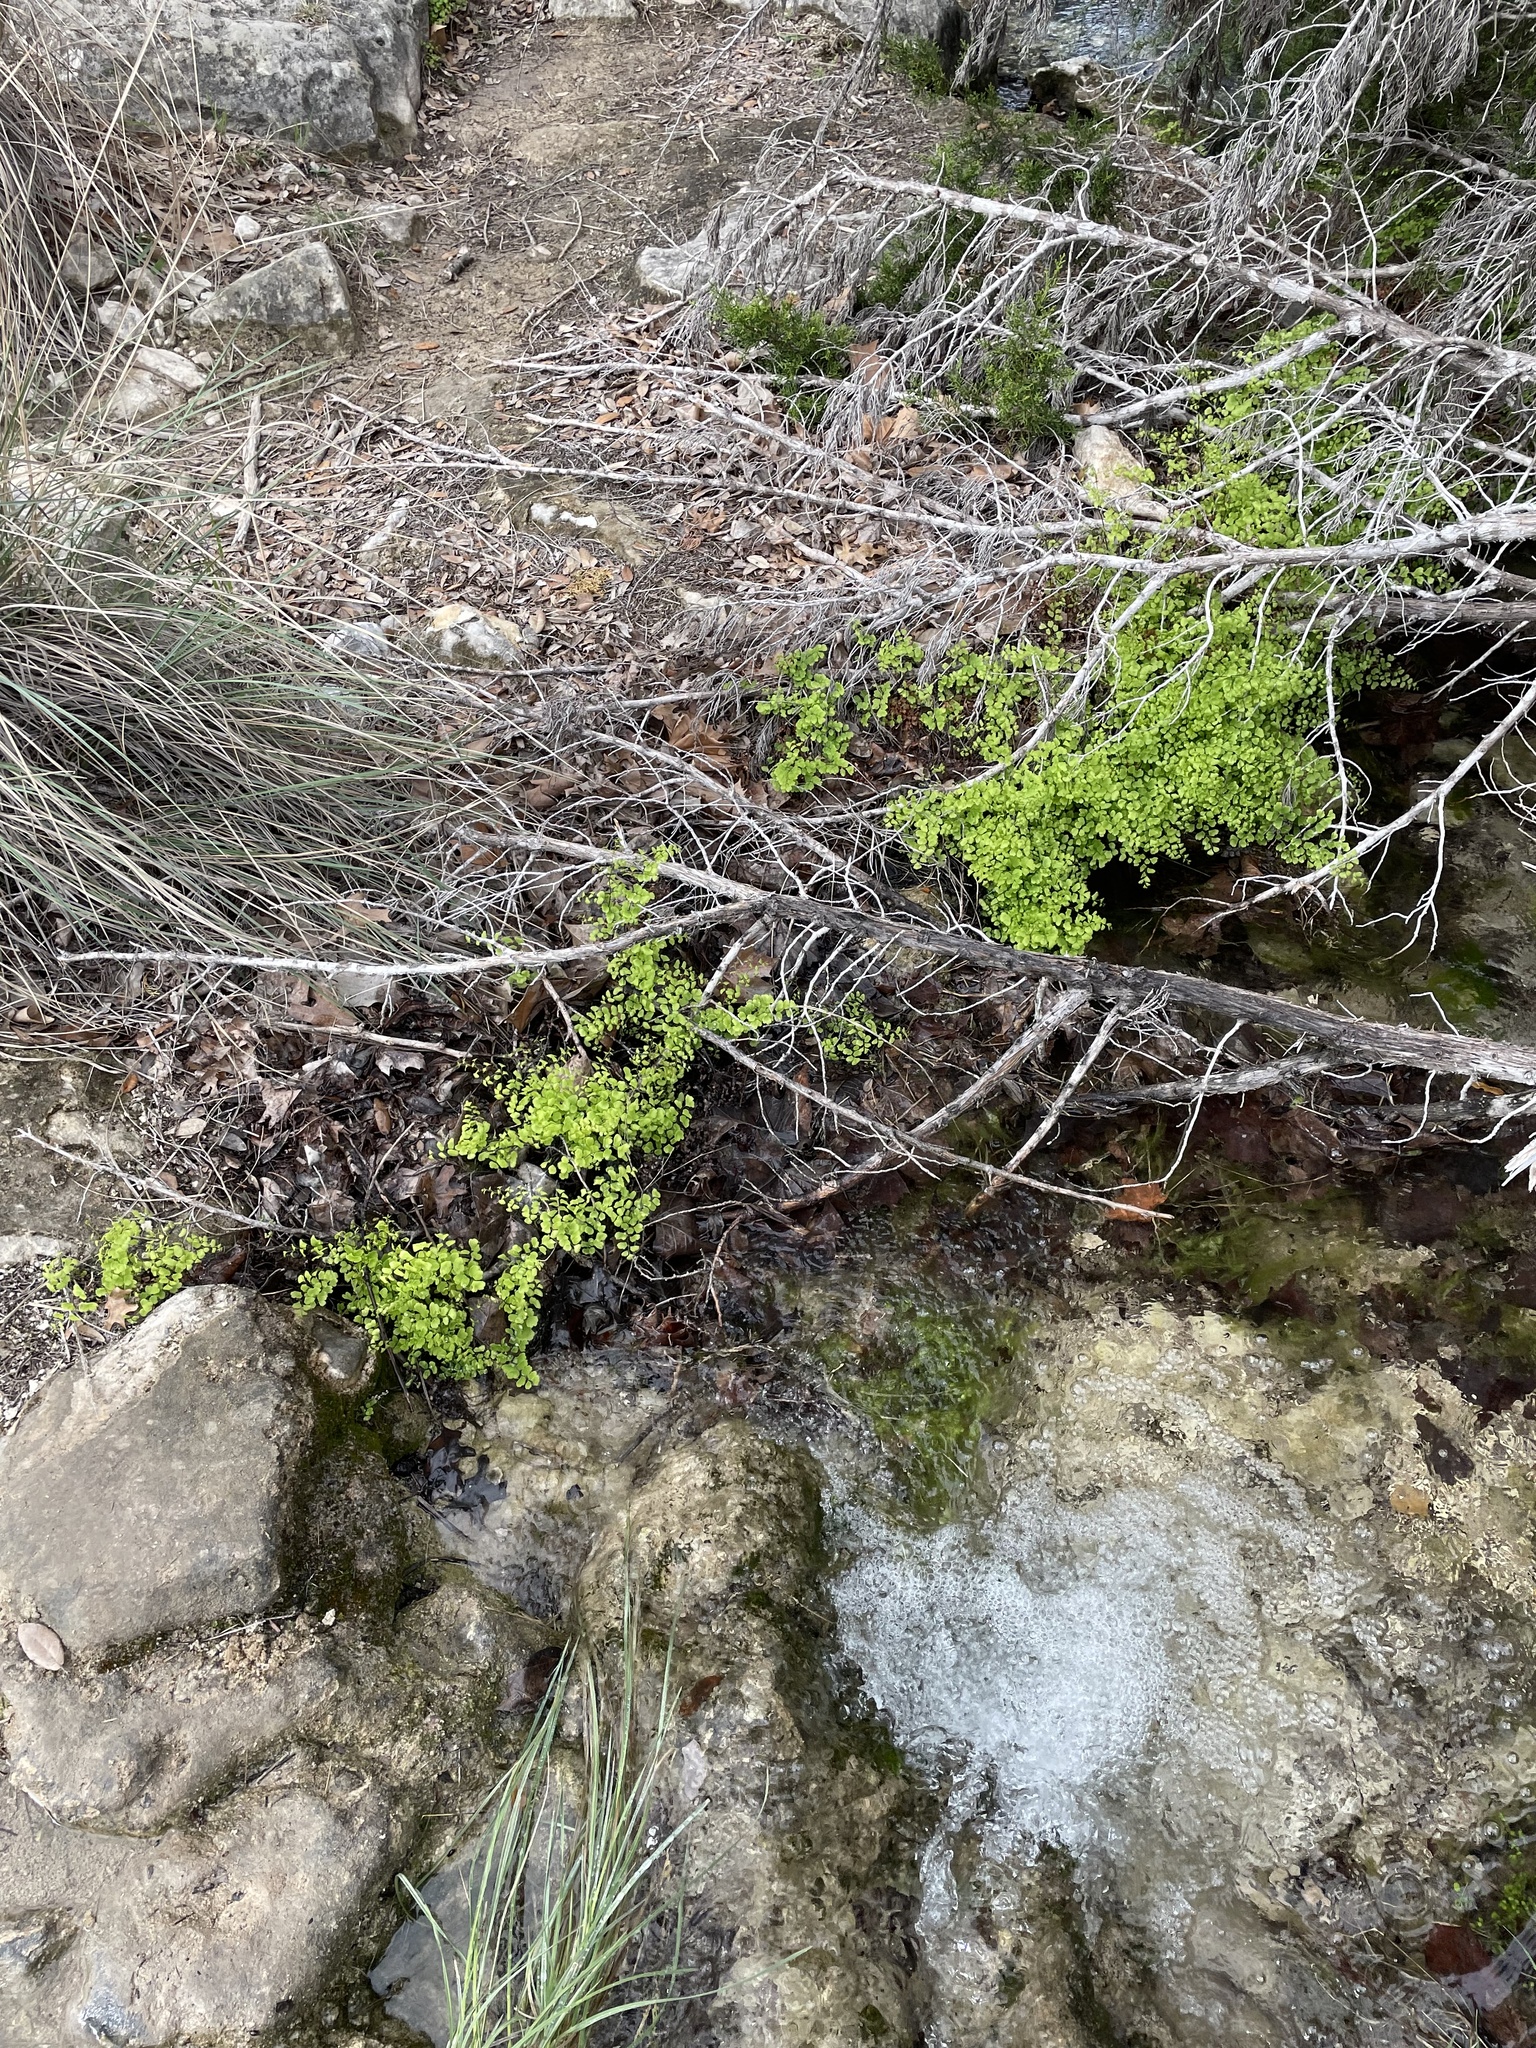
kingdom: Plantae
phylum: Tracheophyta
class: Polypodiopsida
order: Polypodiales
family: Pteridaceae
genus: Adiantum
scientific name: Adiantum capillus-veneris
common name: Maidenhair fern
